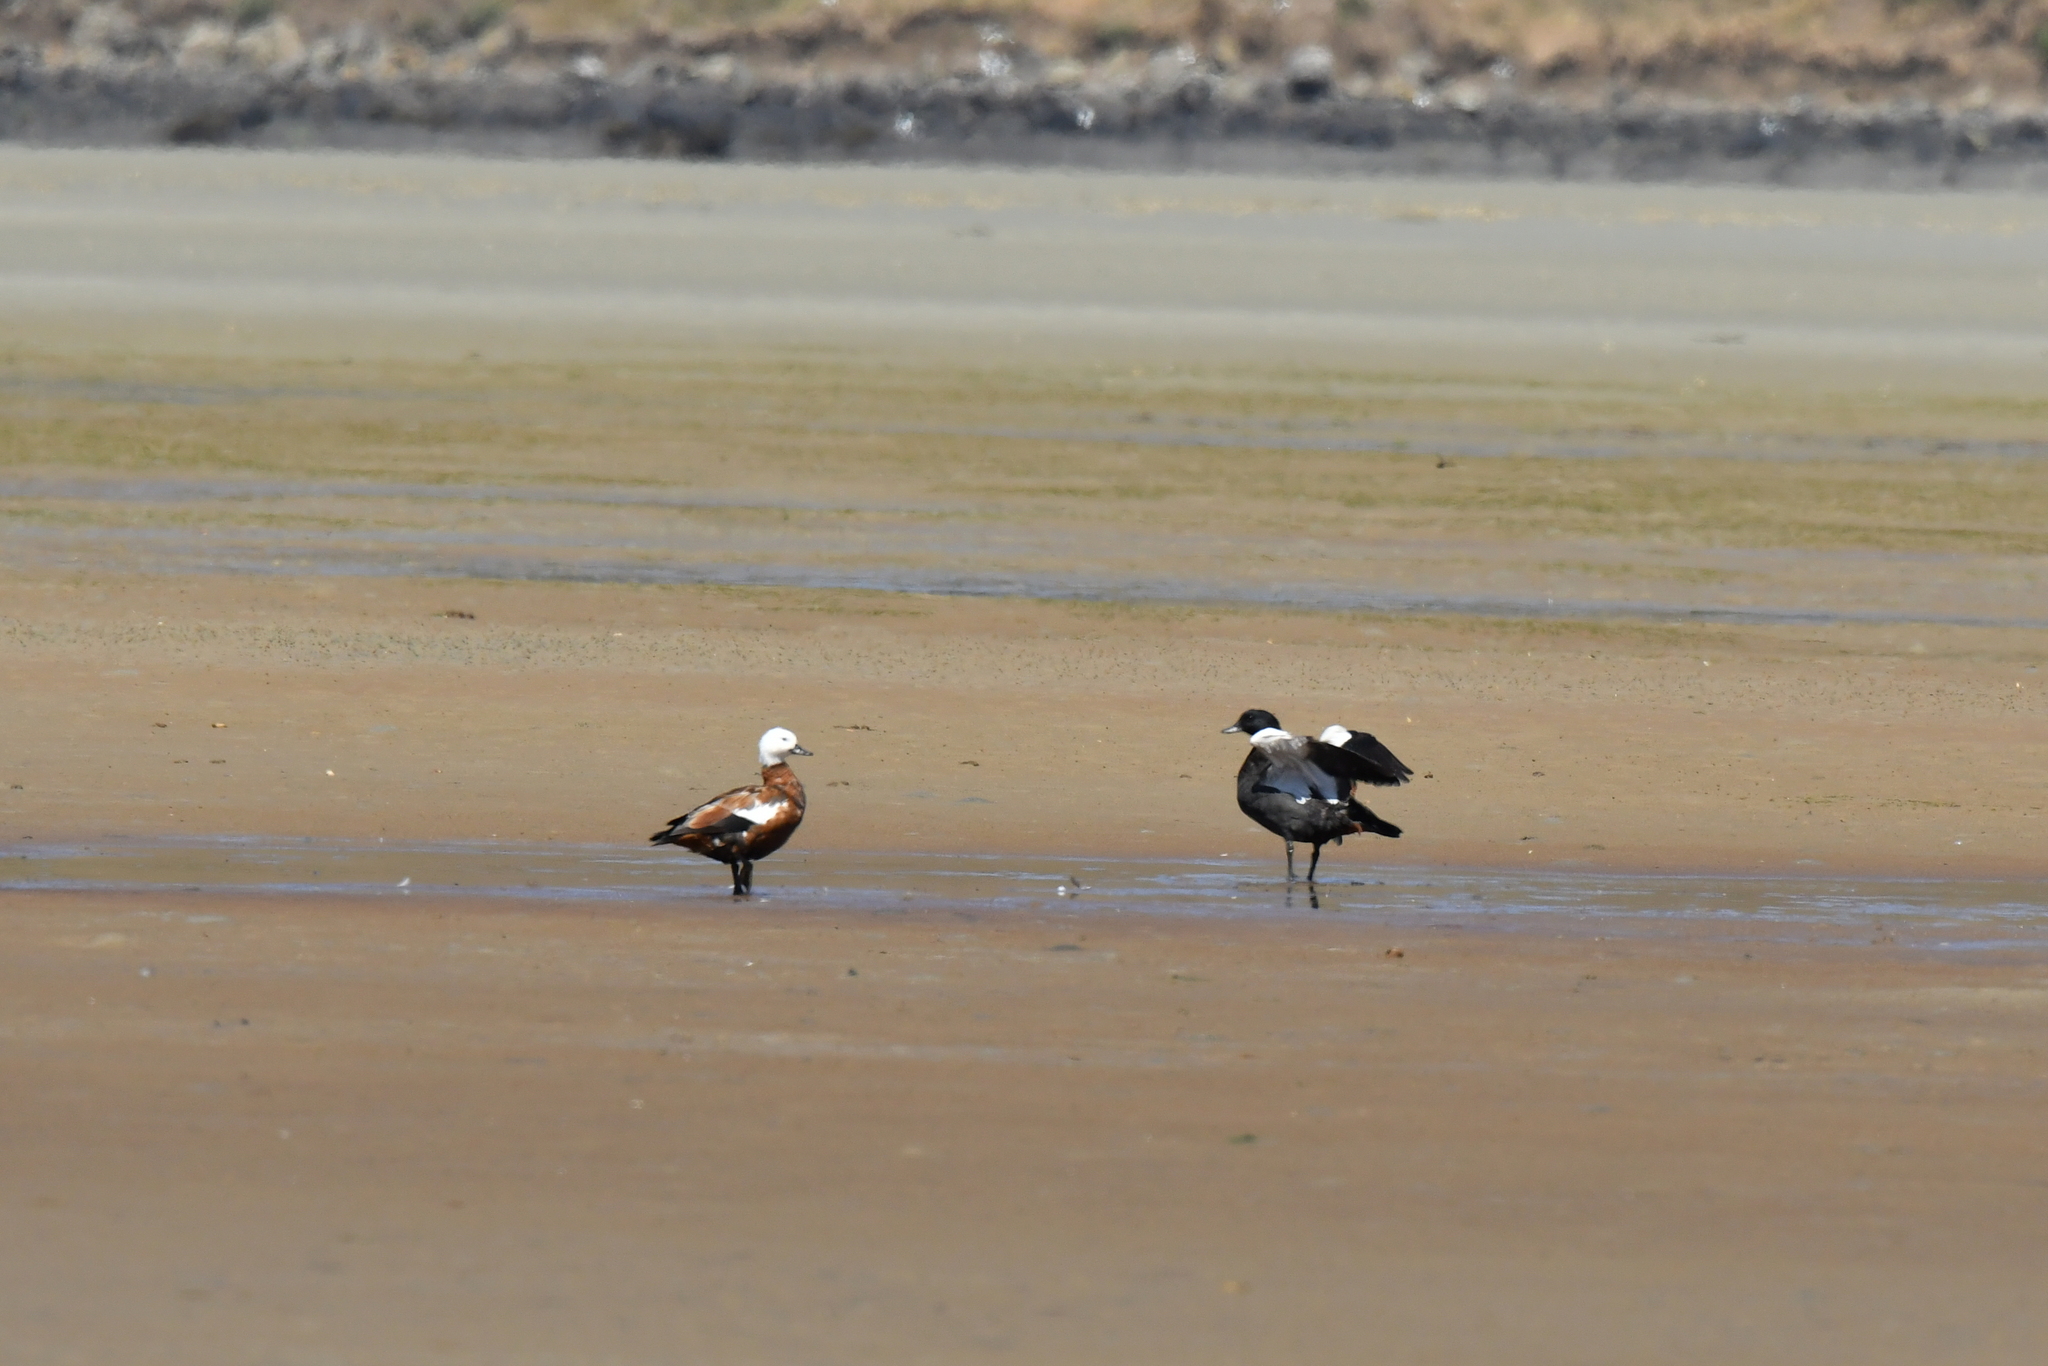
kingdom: Animalia
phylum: Chordata
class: Aves
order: Anseriformes
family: Anatidae
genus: Tadorna
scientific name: Tadorna variegata
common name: Paradise shelduck
